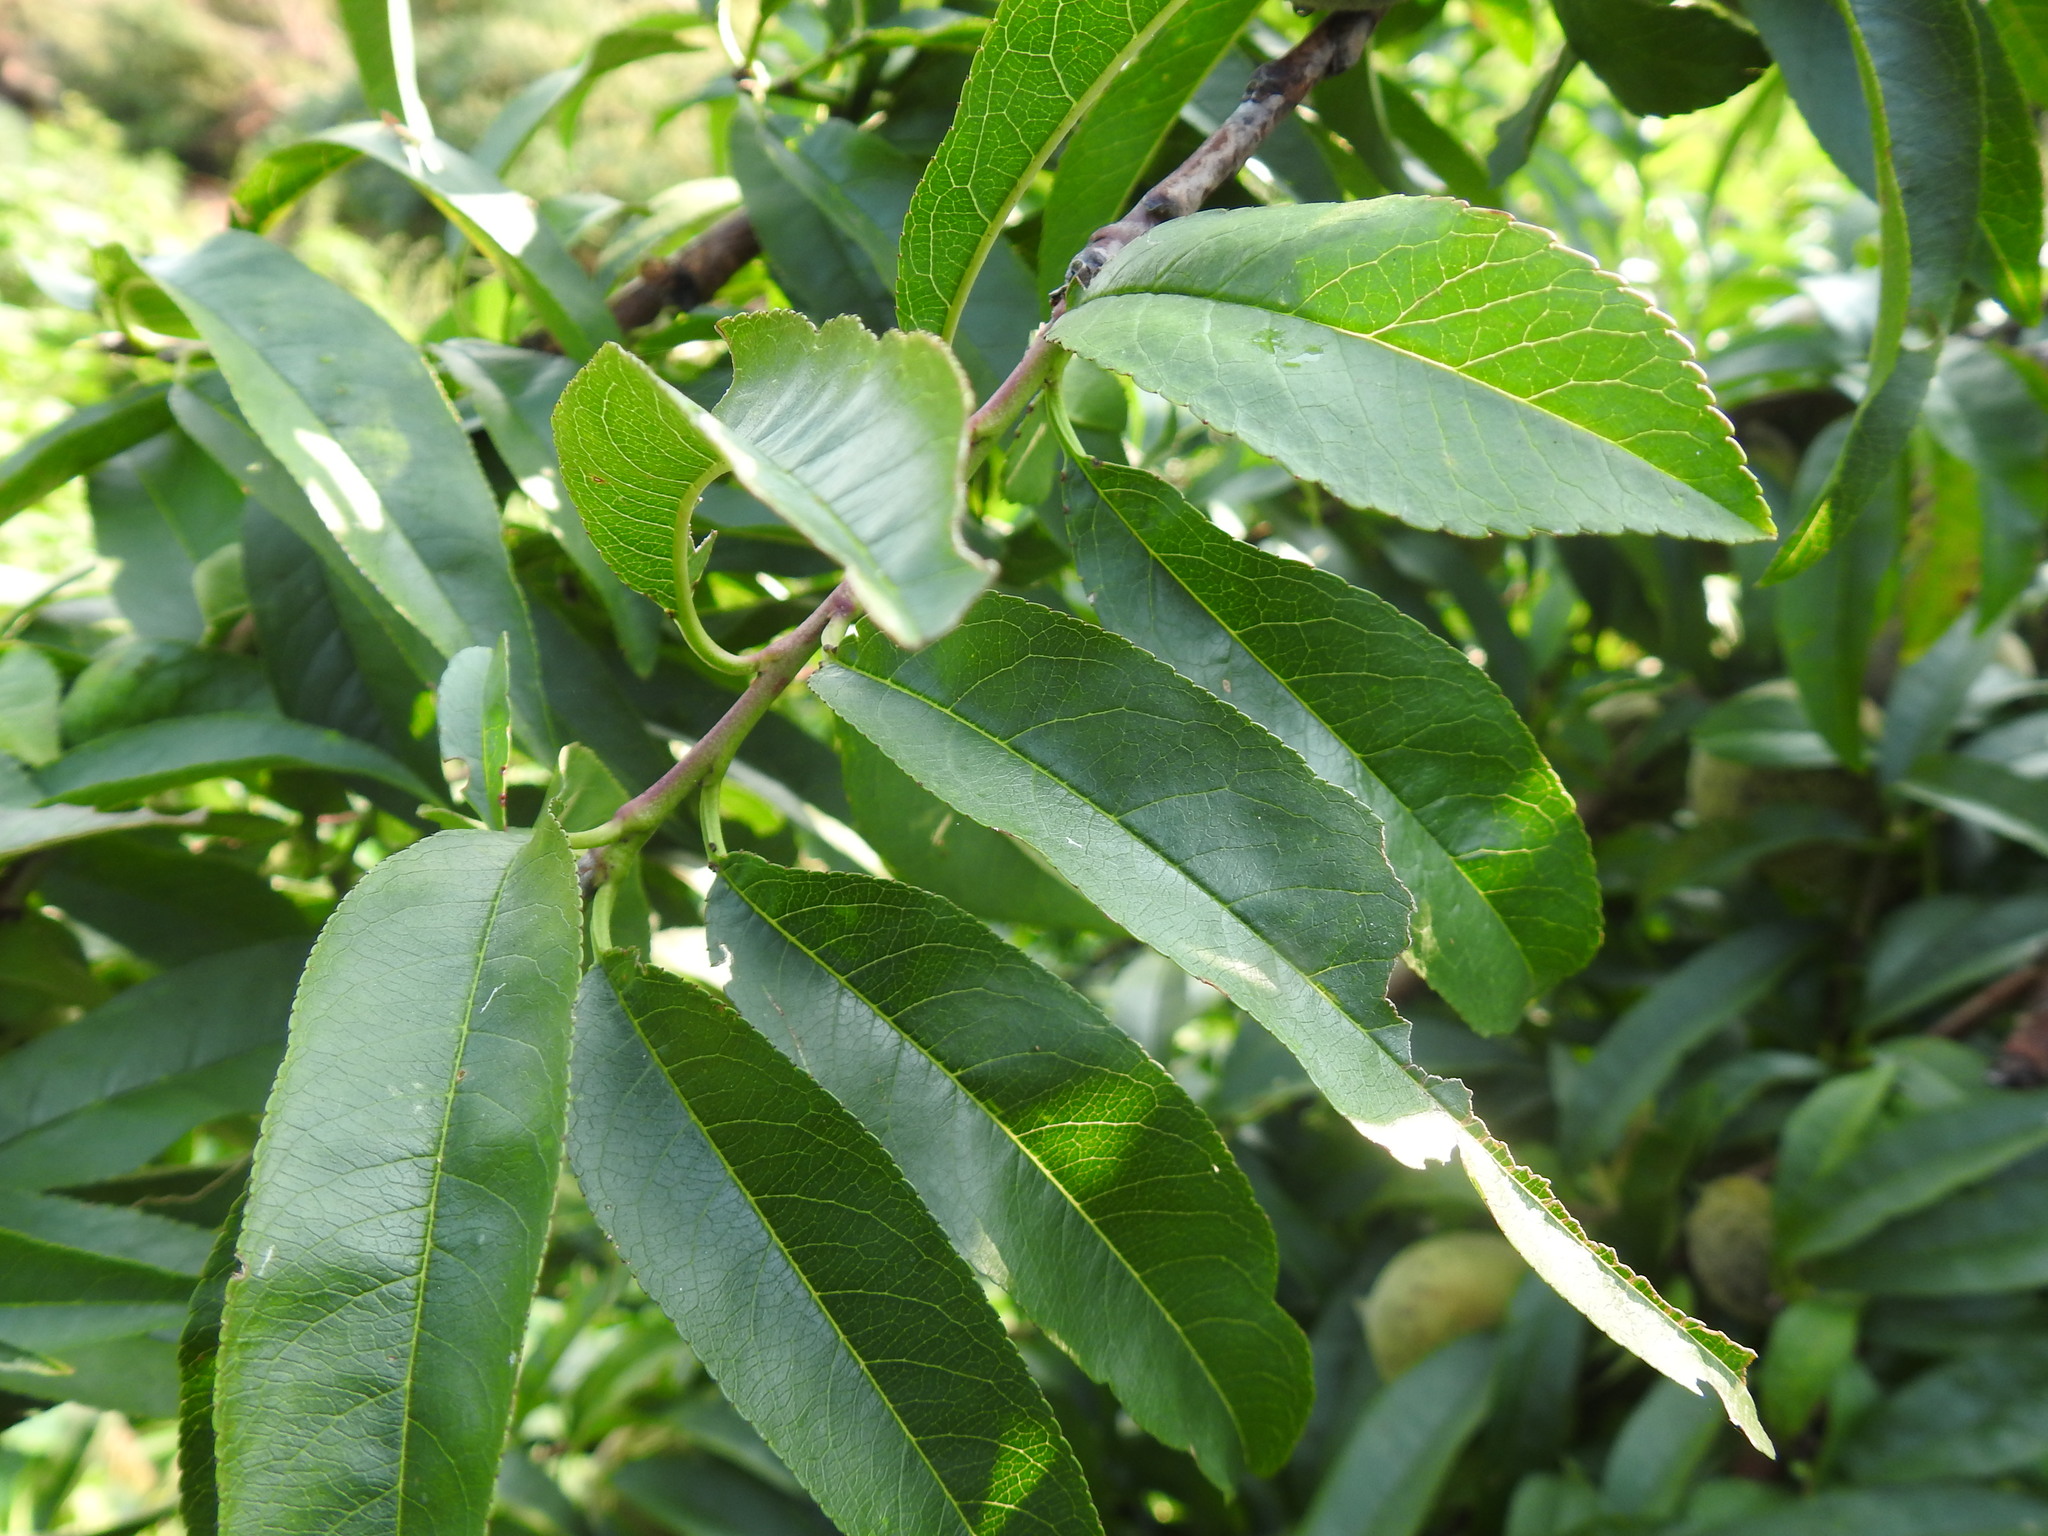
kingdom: Plantae
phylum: Tracheophyta
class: Magnoliopsida
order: Rosales
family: Rosaceae
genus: Prunus
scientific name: Prunus persica
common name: Peach
